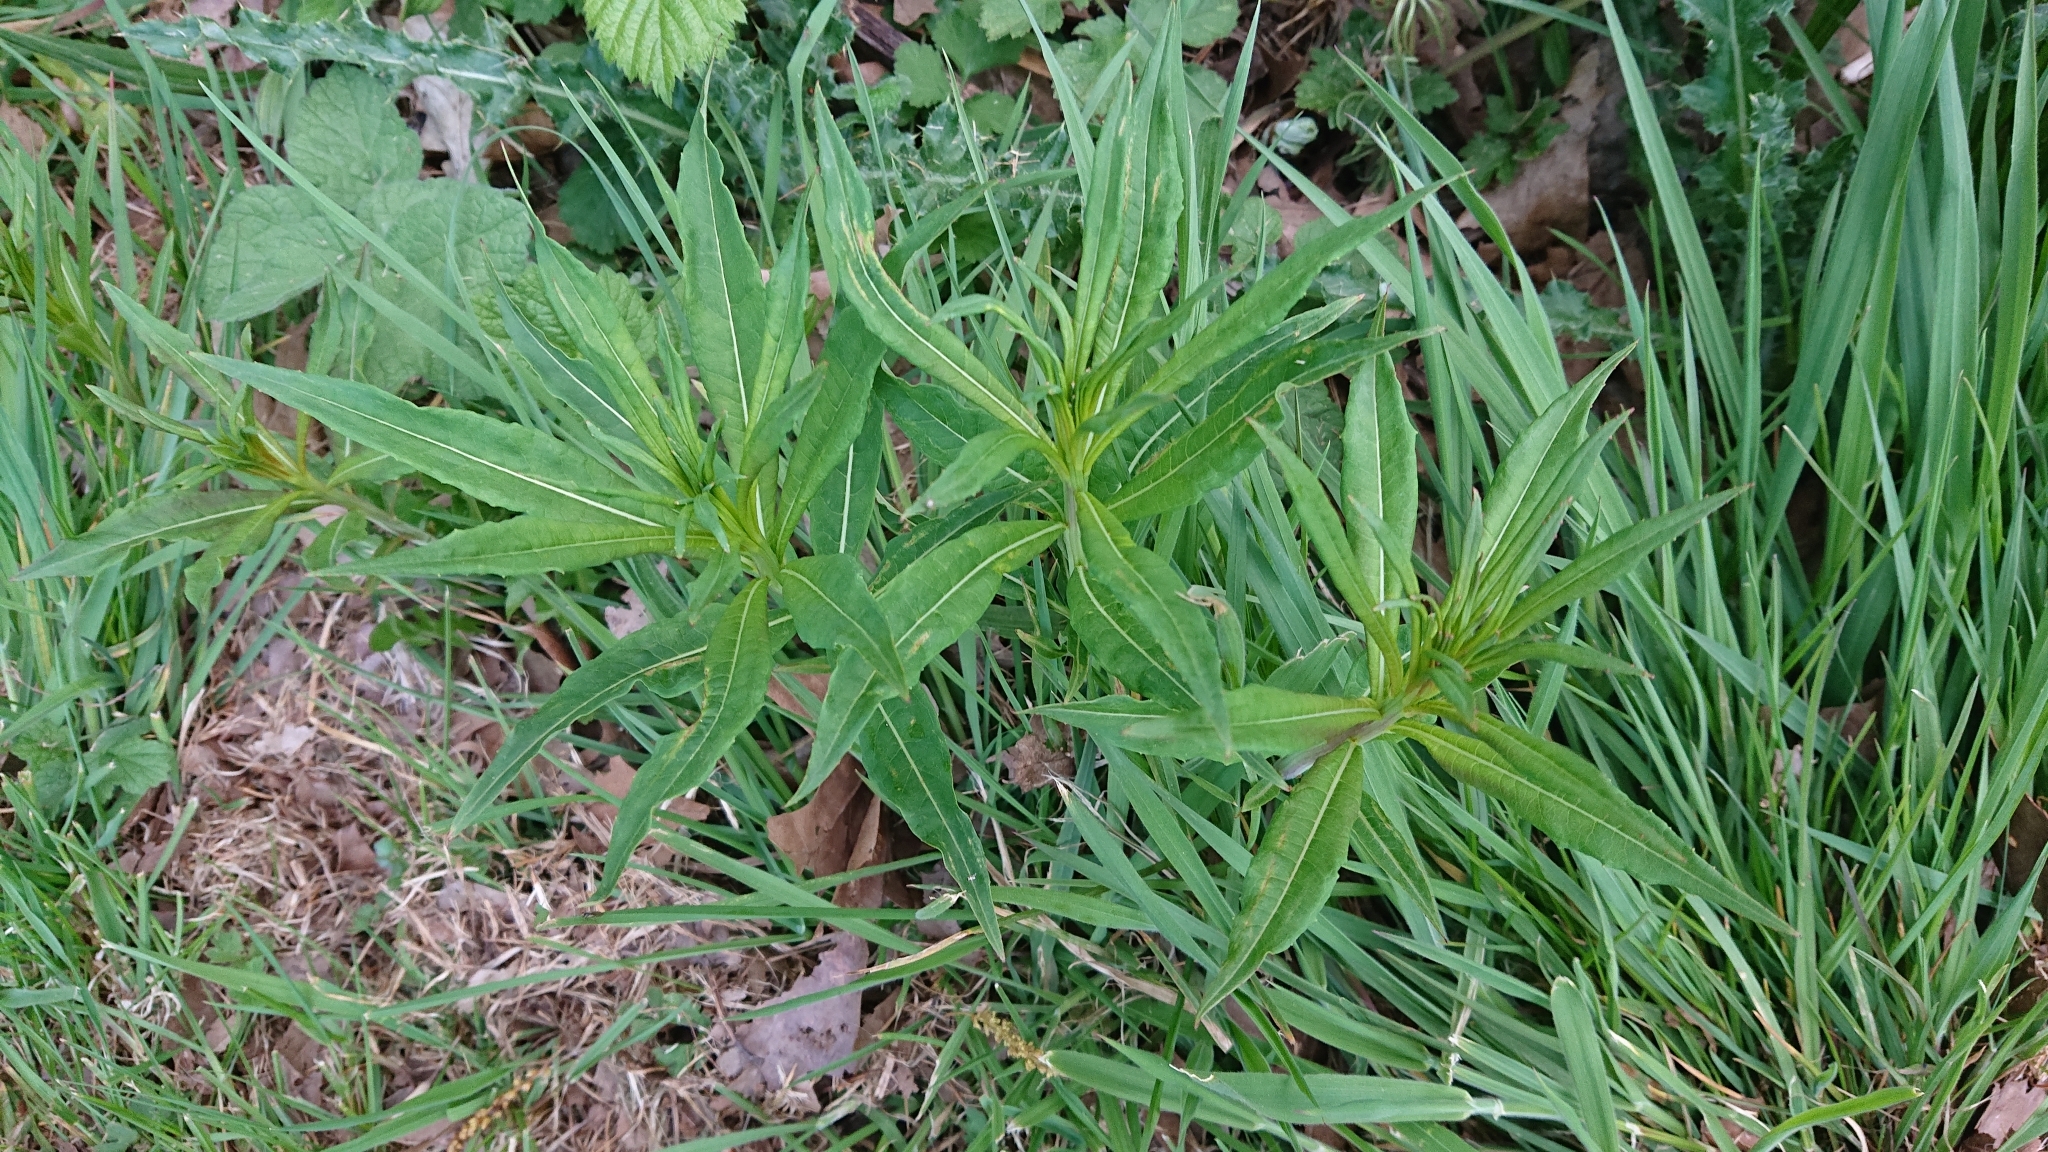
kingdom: Plantae
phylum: Tracheophyta
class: Magnoliopsida
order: Myrtales
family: Onagraceae
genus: Chamaenerion
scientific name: Chamaenerion angustifolium
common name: Fireweed
